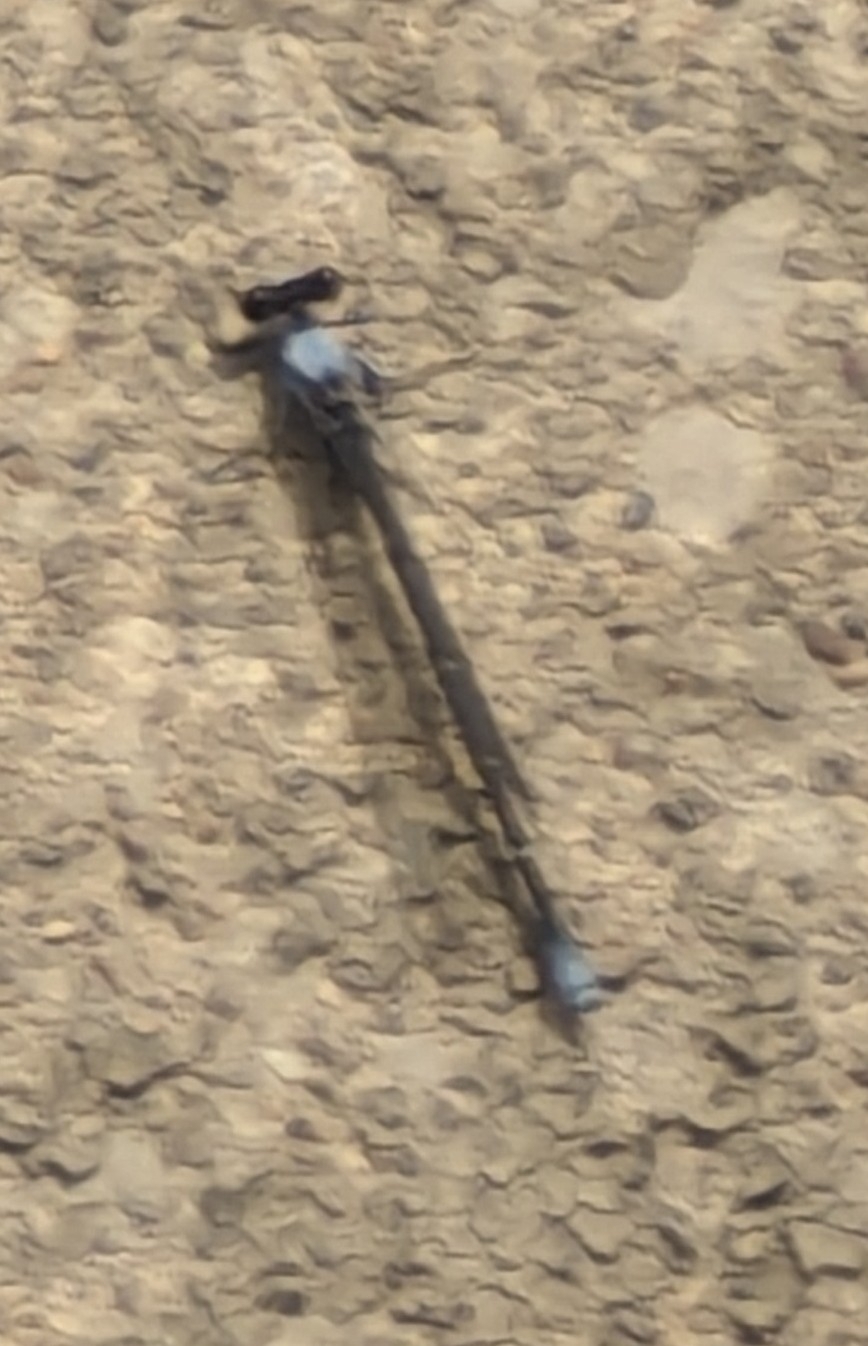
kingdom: Animalia
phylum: Arthropoda
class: Insecta
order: Odonata
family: Coenagrionidae
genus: Argia
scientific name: Argia moesta
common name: Powdered dancer
